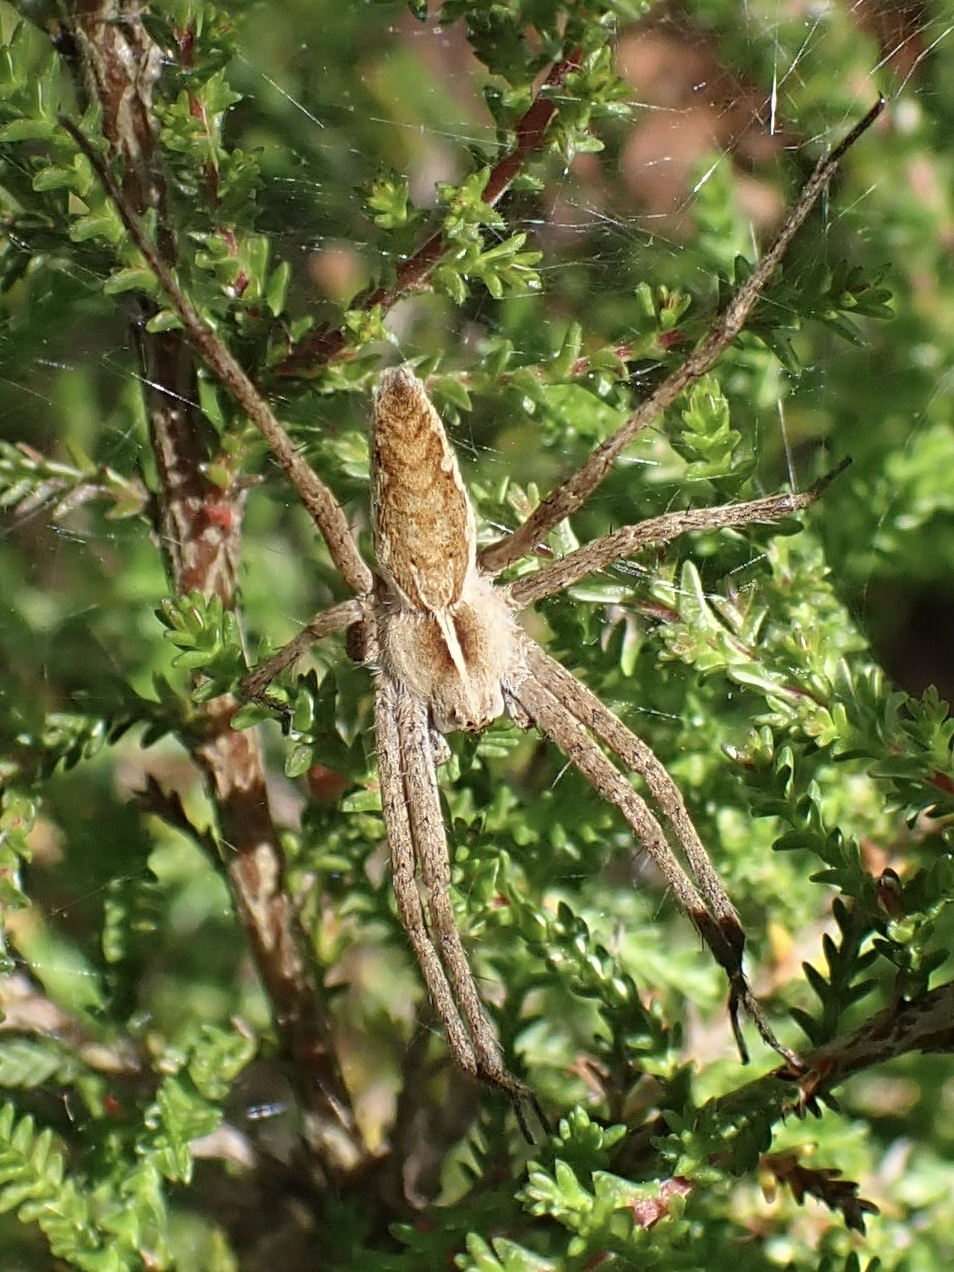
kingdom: Animalia
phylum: Arthropoda
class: Arachnida
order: Araneae
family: Pisauridae
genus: Pisaura
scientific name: Pisaura mirabilis
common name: Tent spider
